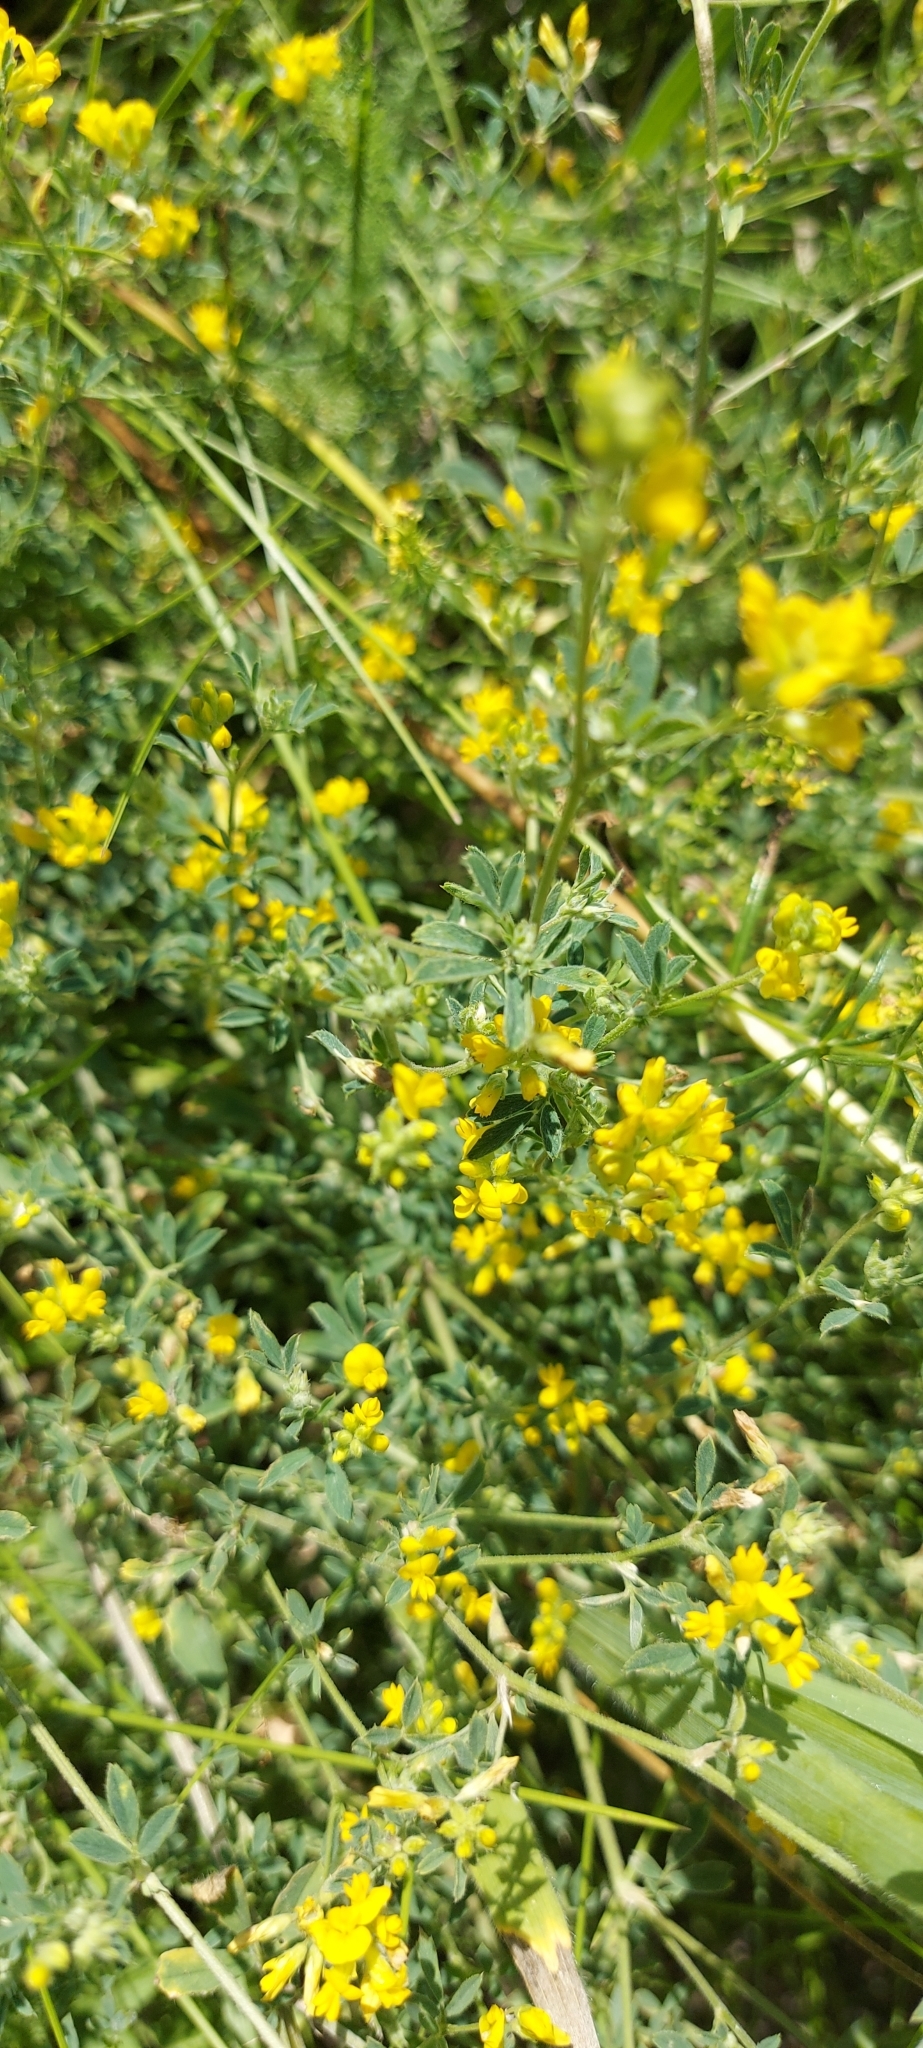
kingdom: Plantae
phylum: Tracheophyta
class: Magnoliopsida
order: Fabales
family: Fabaceae
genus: Medicago
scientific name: Medicago falcata
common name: Sickle medick
